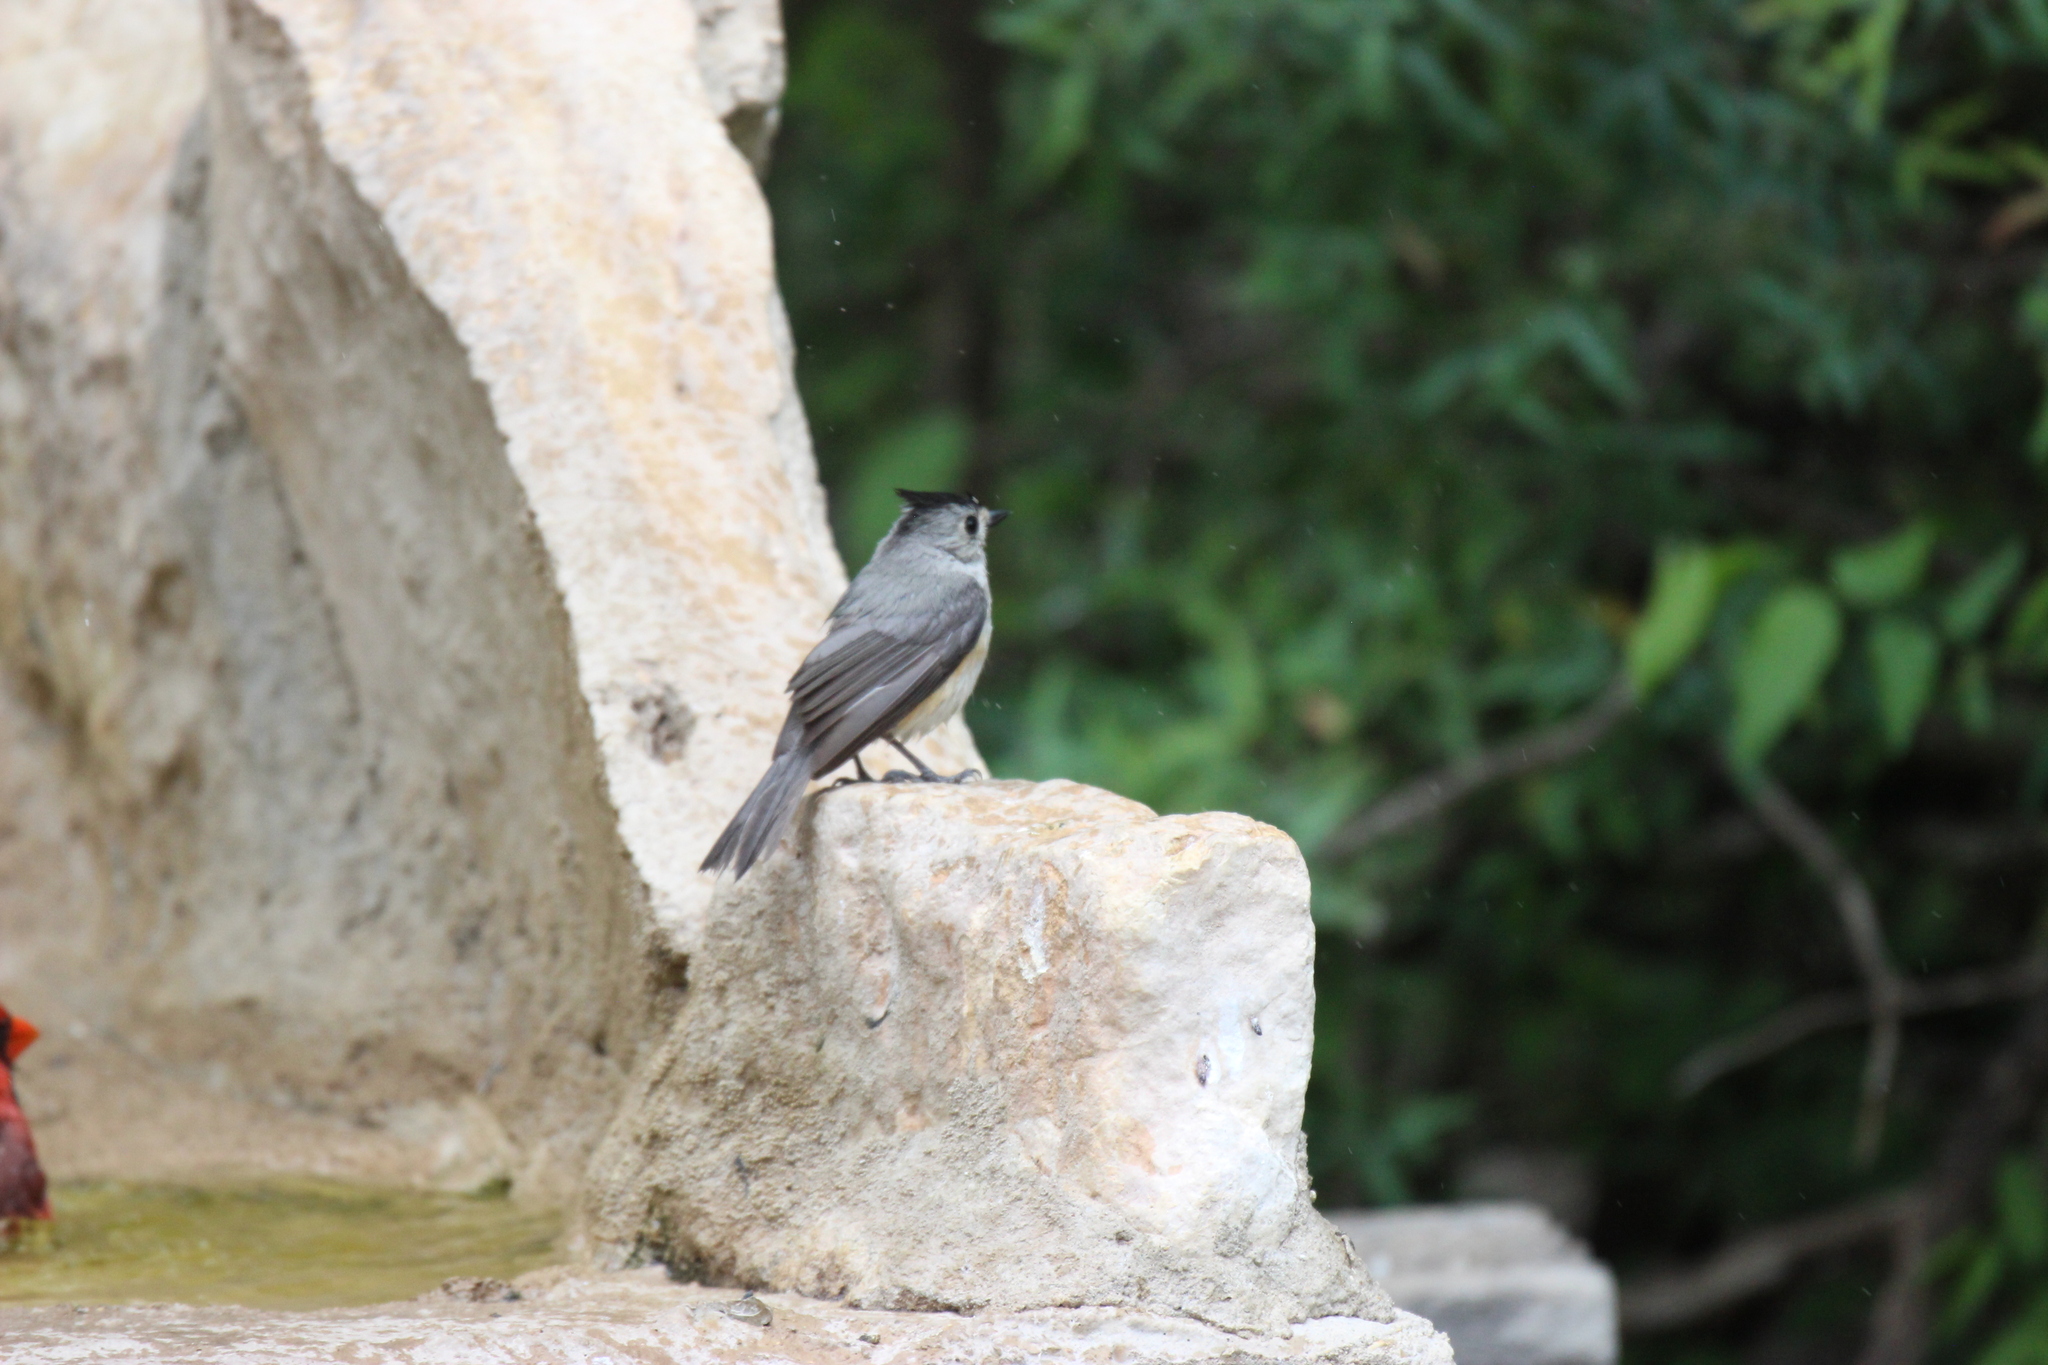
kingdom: Animalia
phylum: Chordata
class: Aves
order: Passeriformes
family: Paridae
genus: Baeolophus
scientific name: Baeolophus atricristatus
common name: Black-crested titmouse
